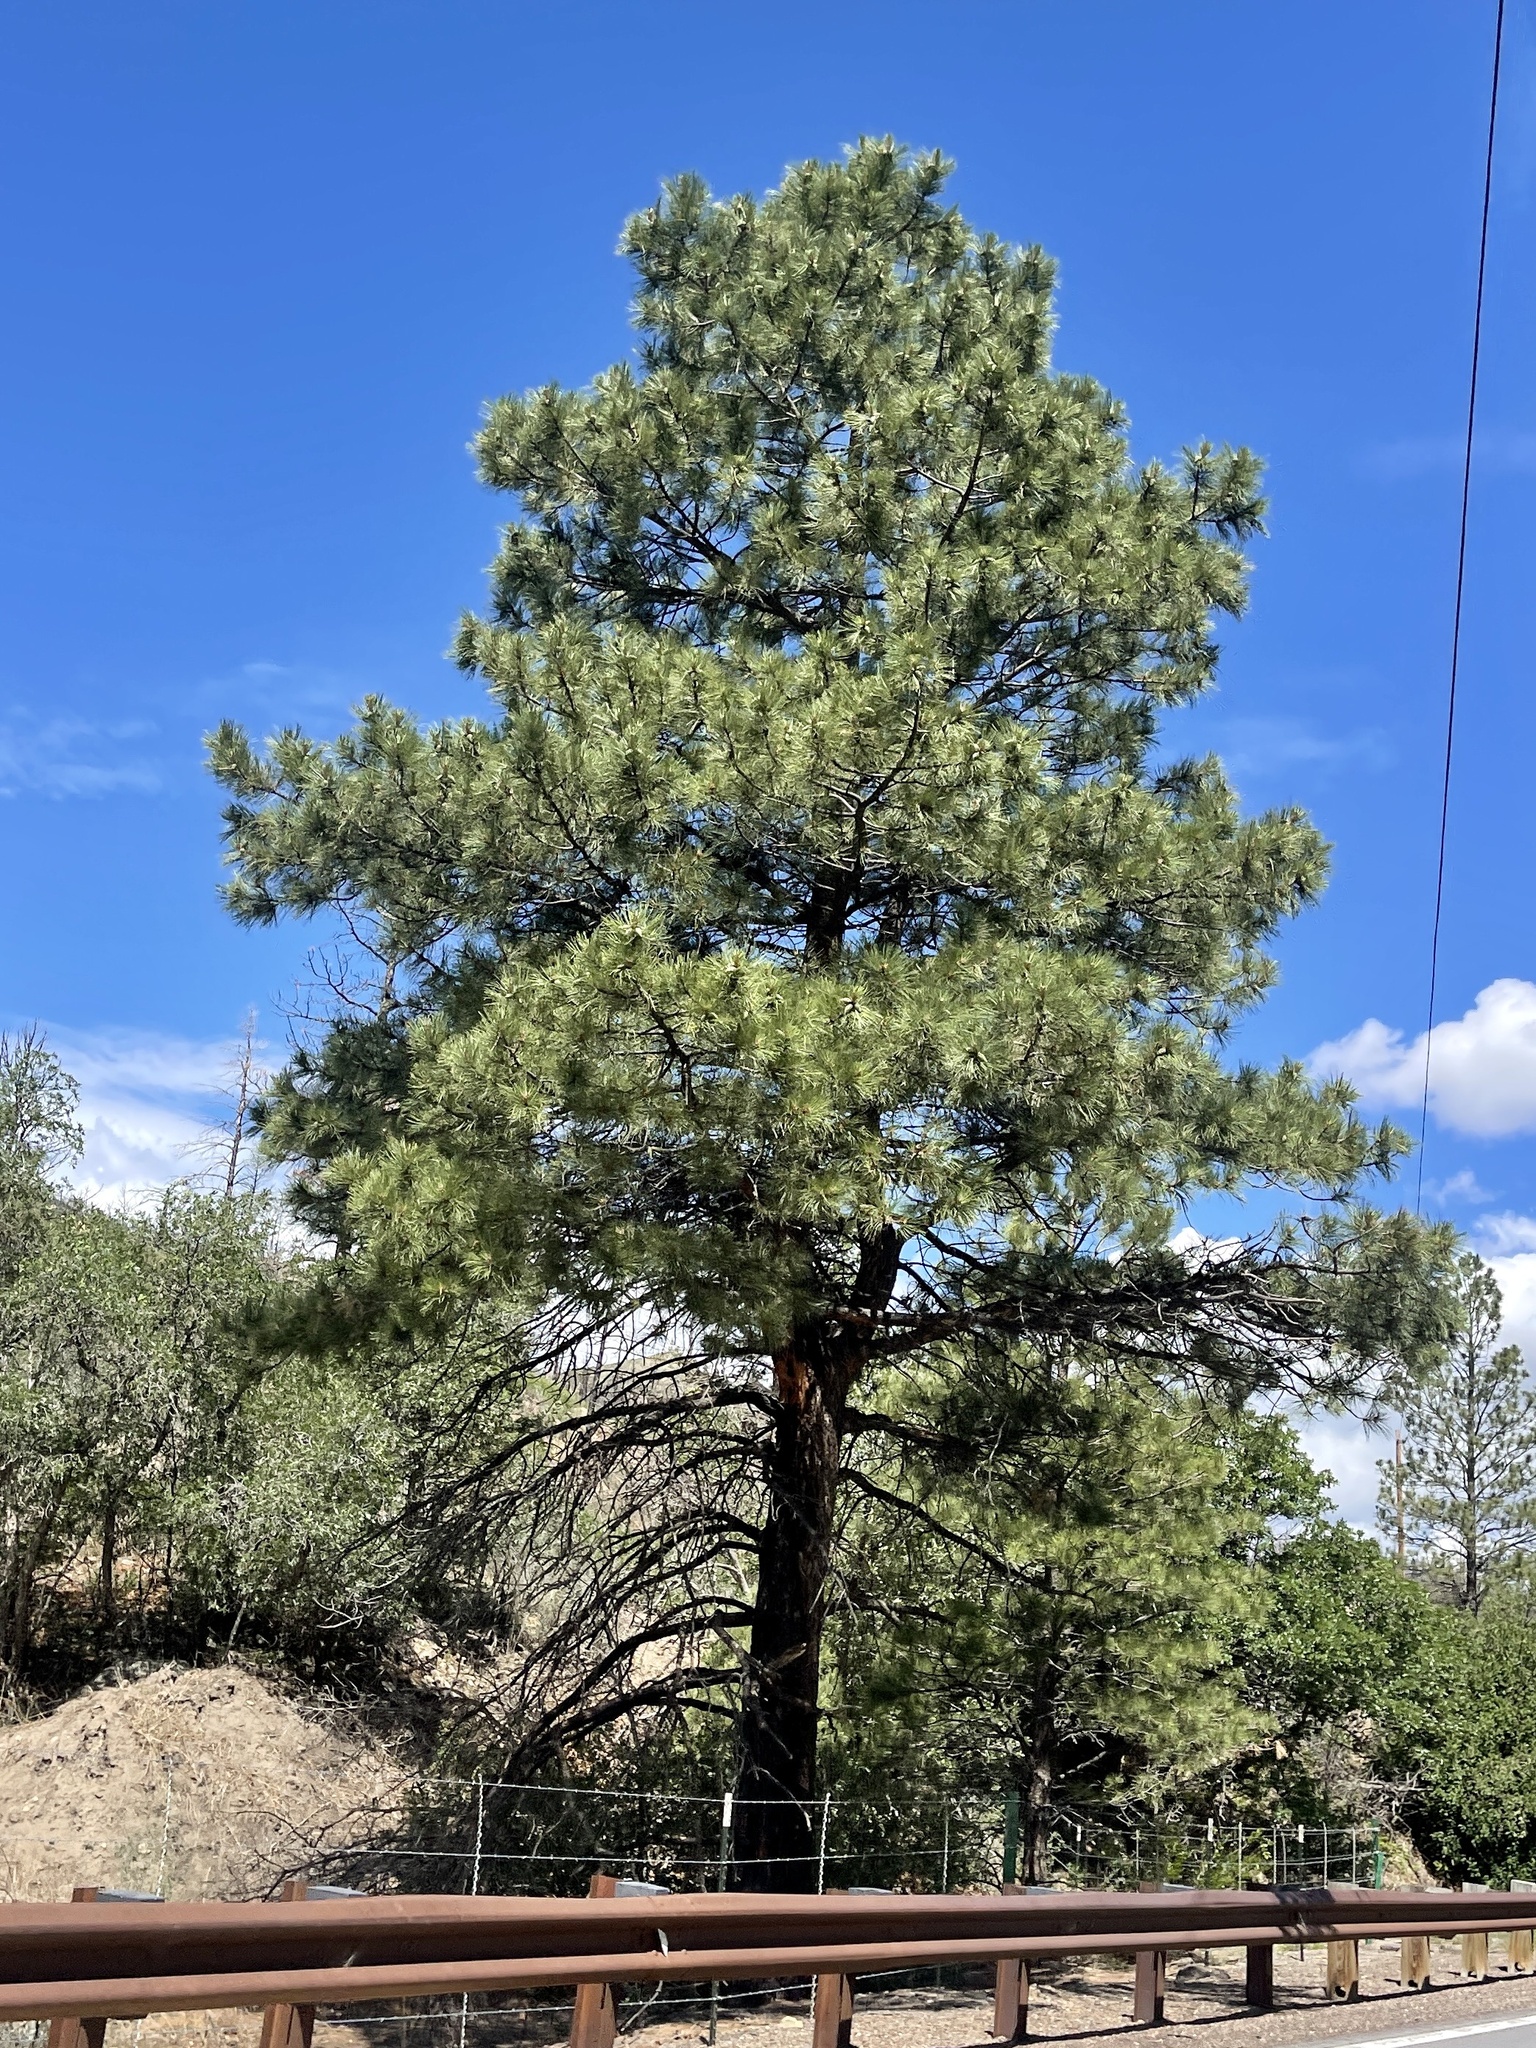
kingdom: Plantae
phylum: Tracheophyta
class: Pinopsida
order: Pinales
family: Pinaceae
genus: Pinus
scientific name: Pinus ponderosa
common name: Western yellow-pine
